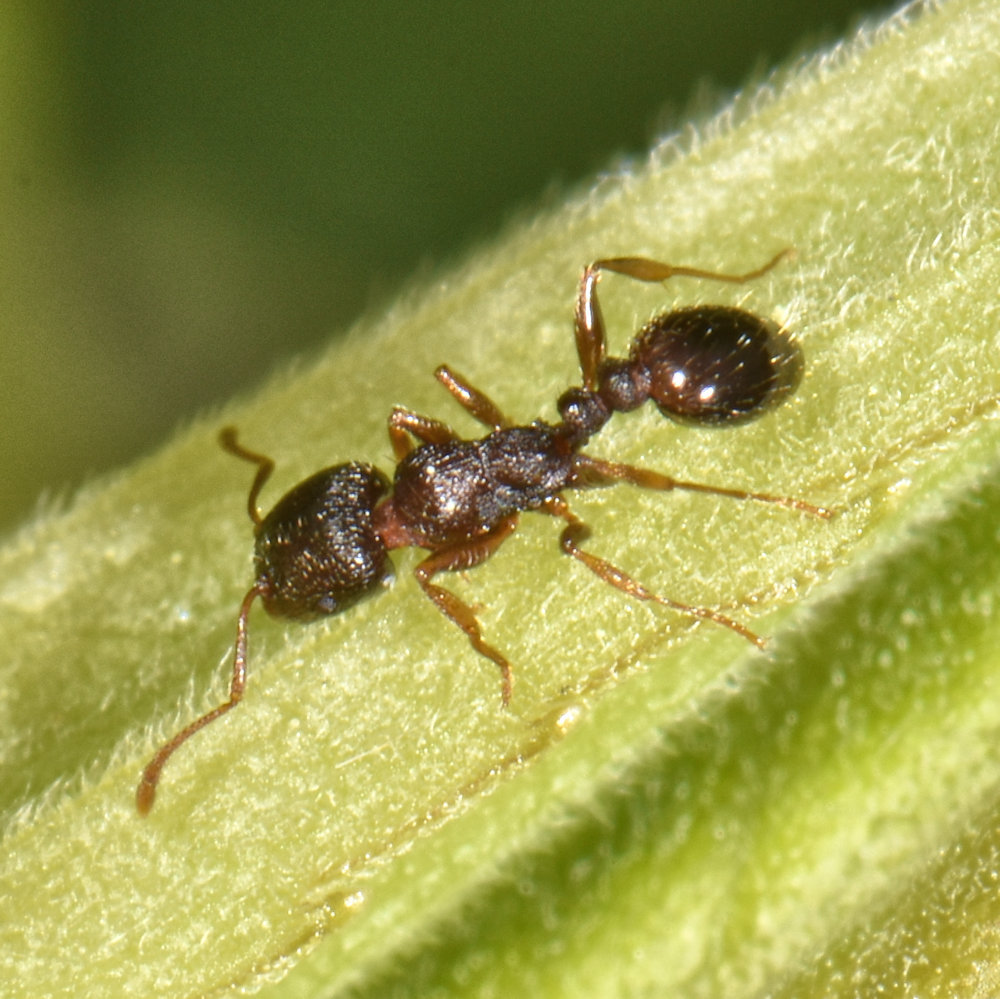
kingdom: Animalia
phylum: Arthropoda
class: Insecta
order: Hymenoptera
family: Formicidae
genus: Tetramorium
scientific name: Tetramorium immigrans
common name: Pavement ant
